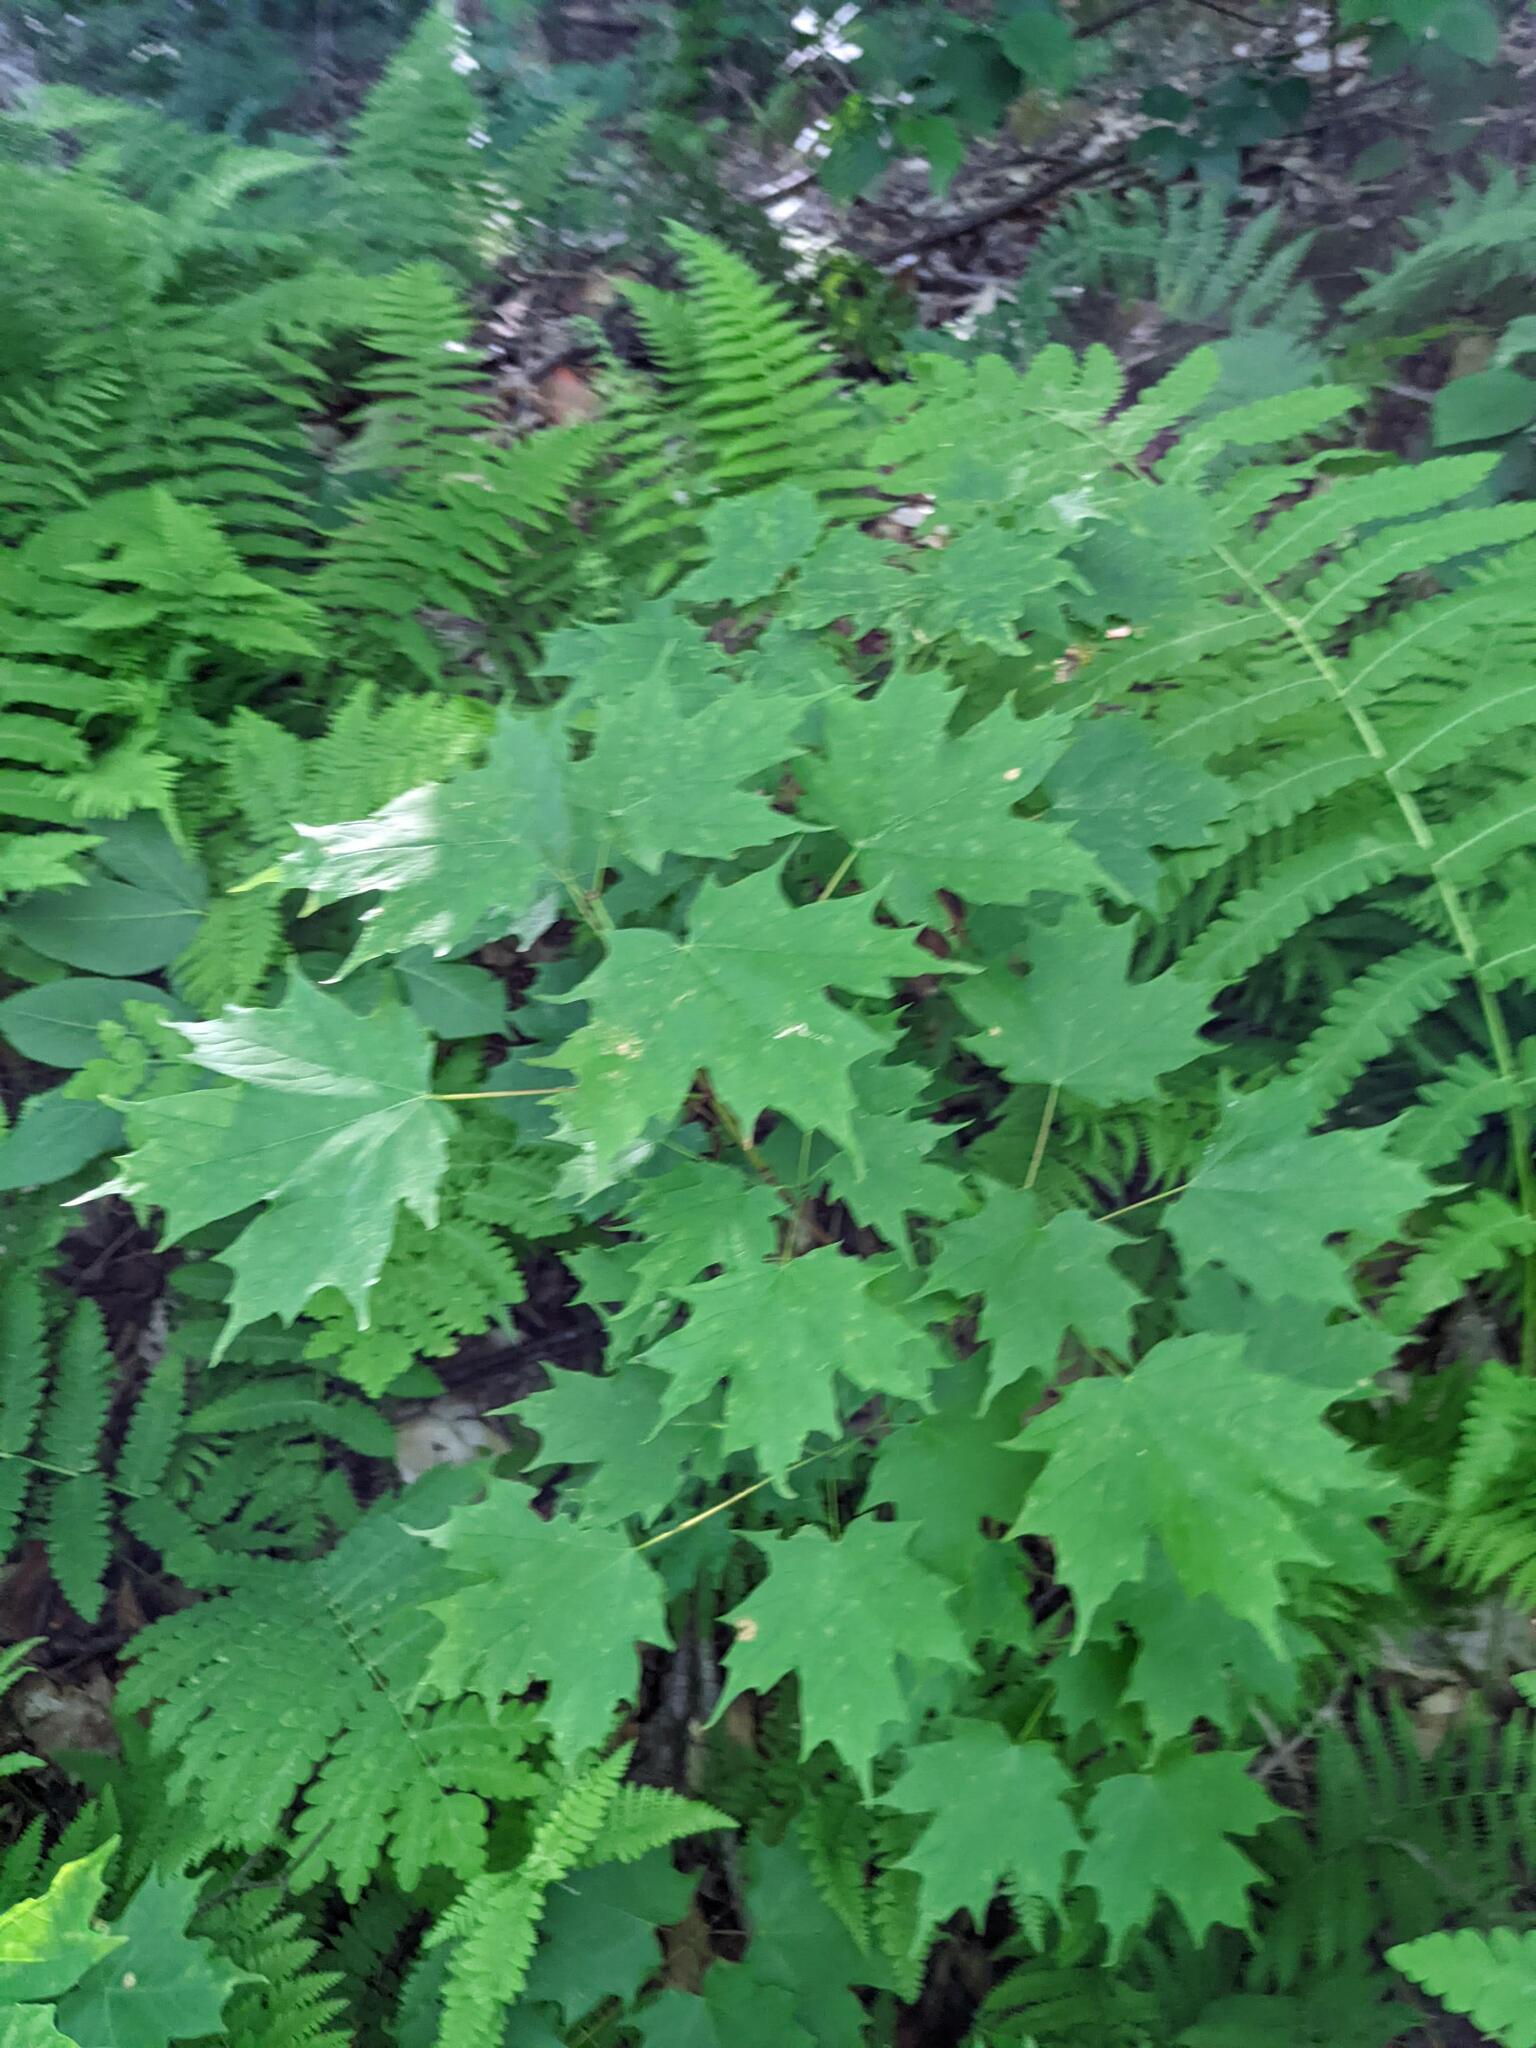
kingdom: Plantae
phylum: Tracheophyta
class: Magnoliopsida
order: Sapindales
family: Sapindaceae
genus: Acer
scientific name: Acer saccharum
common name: Sugar maple
